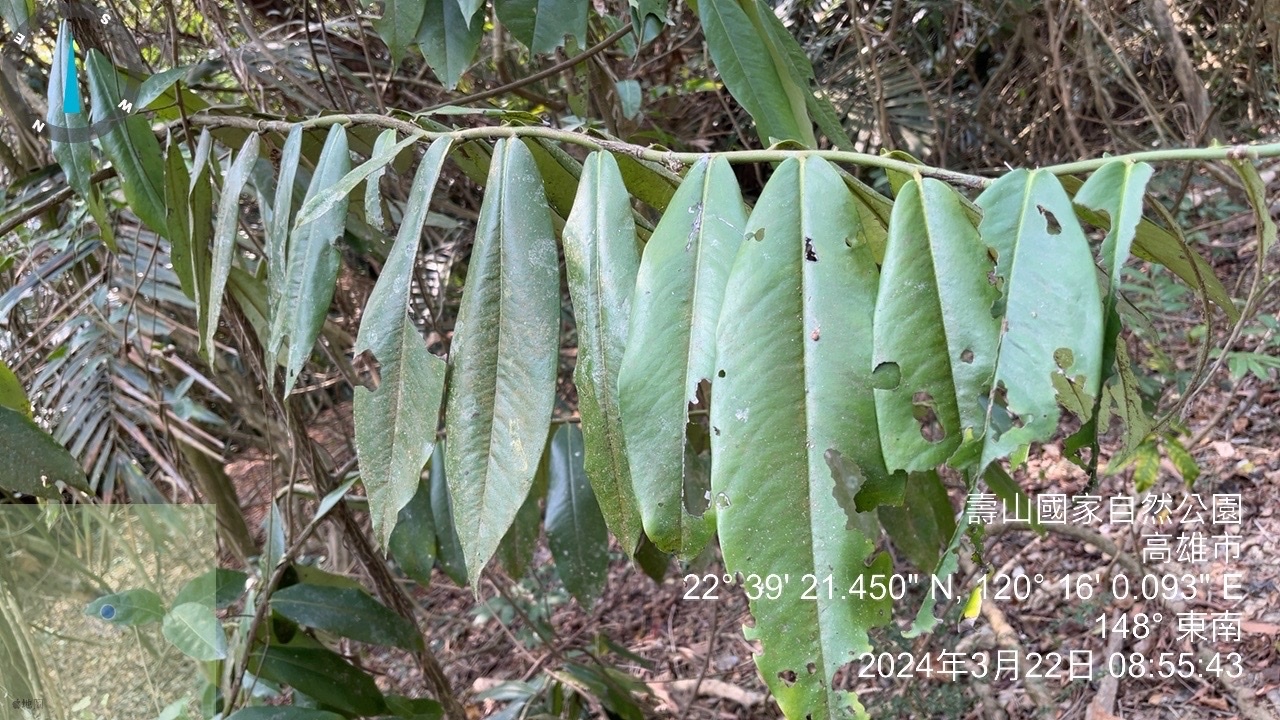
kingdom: Plantae
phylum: Tracheophyta
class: Magnoliopsida
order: Ericales
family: Ebenaceae
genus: Diospyros
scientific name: Diospyros blancoi
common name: Mabola-tree
